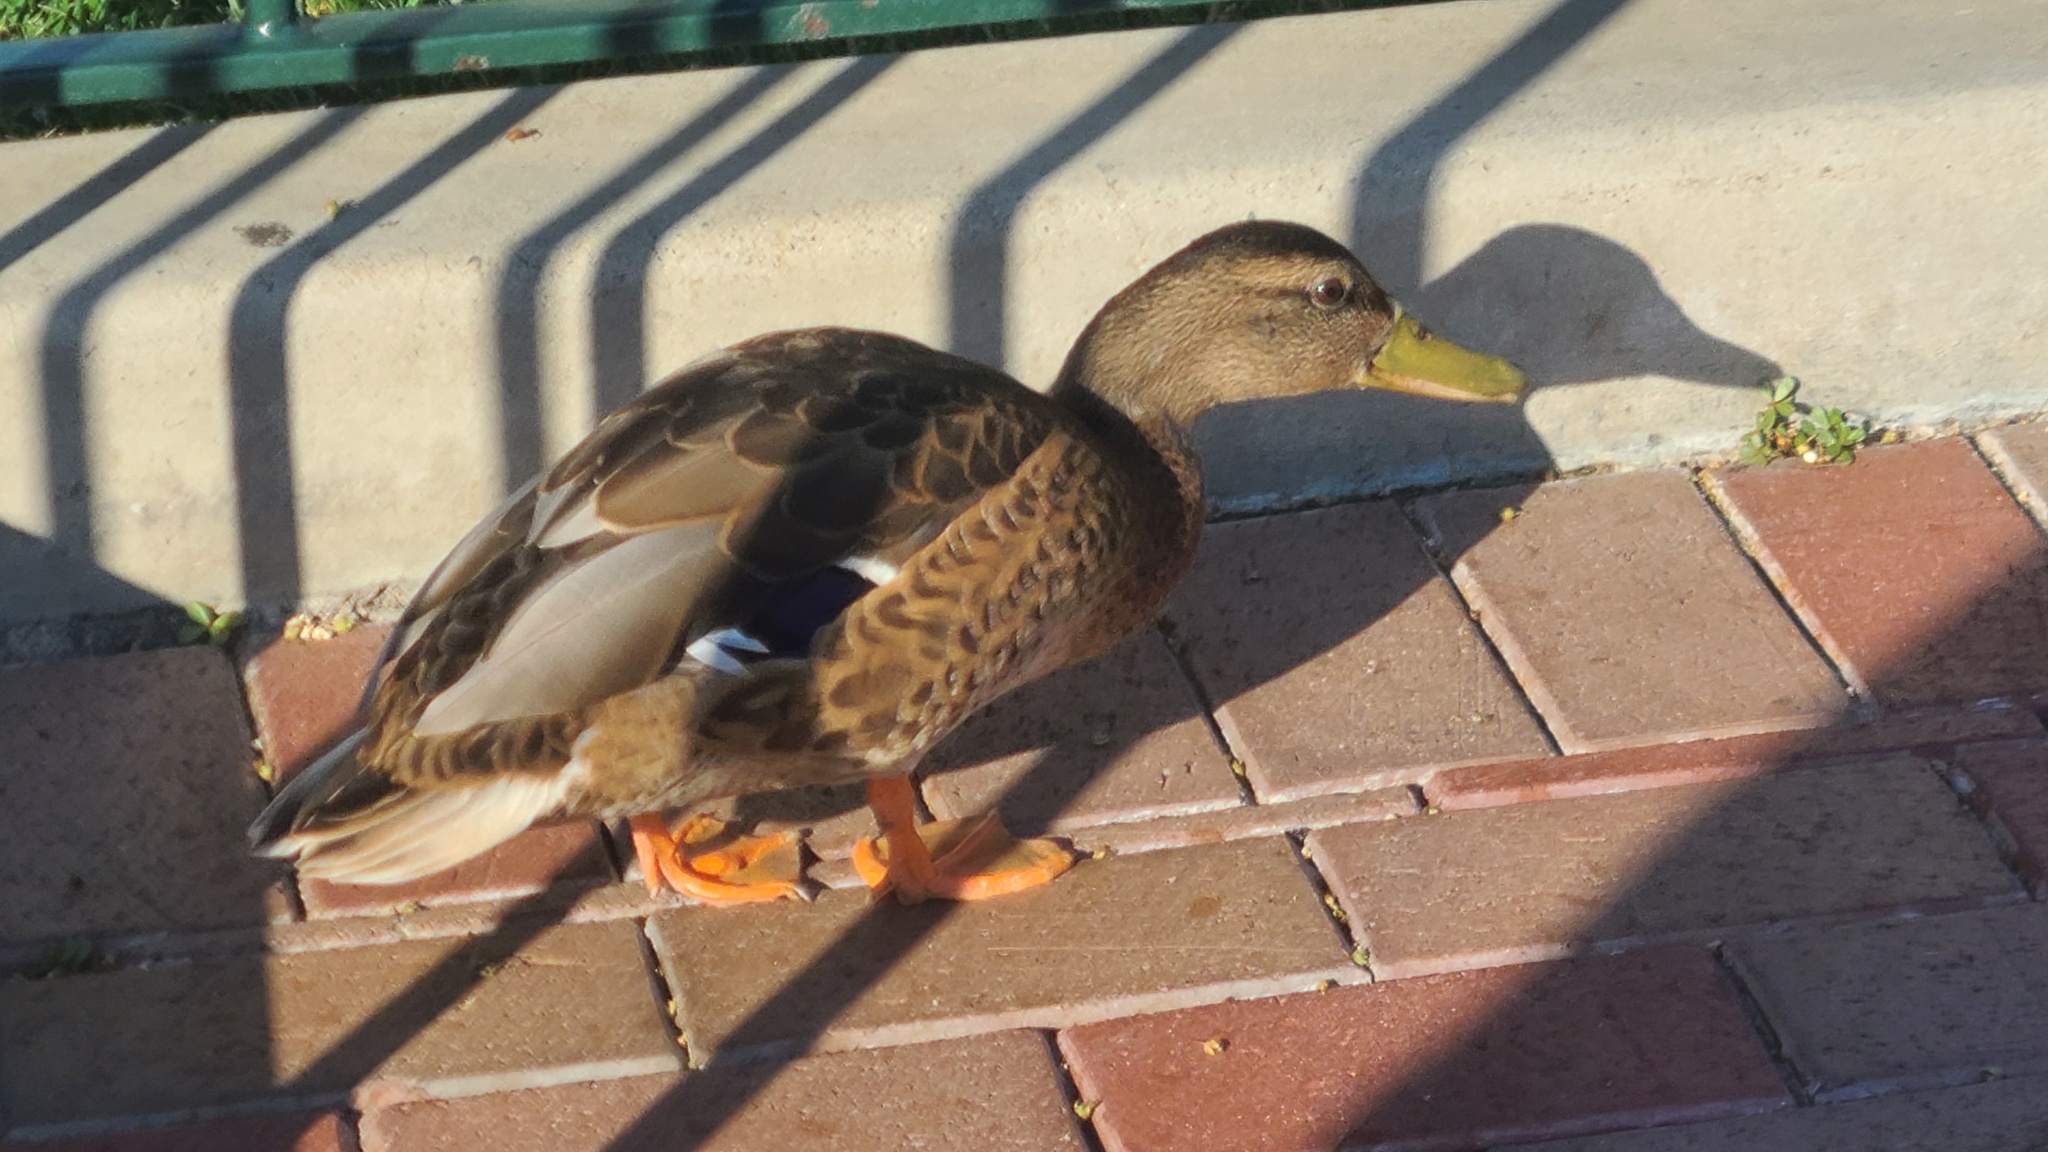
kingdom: Animalia
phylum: Chordata
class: Aves
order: Anseriformes
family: Anatidae
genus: Anas
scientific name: Anas platyrhynchos
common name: Mallard
